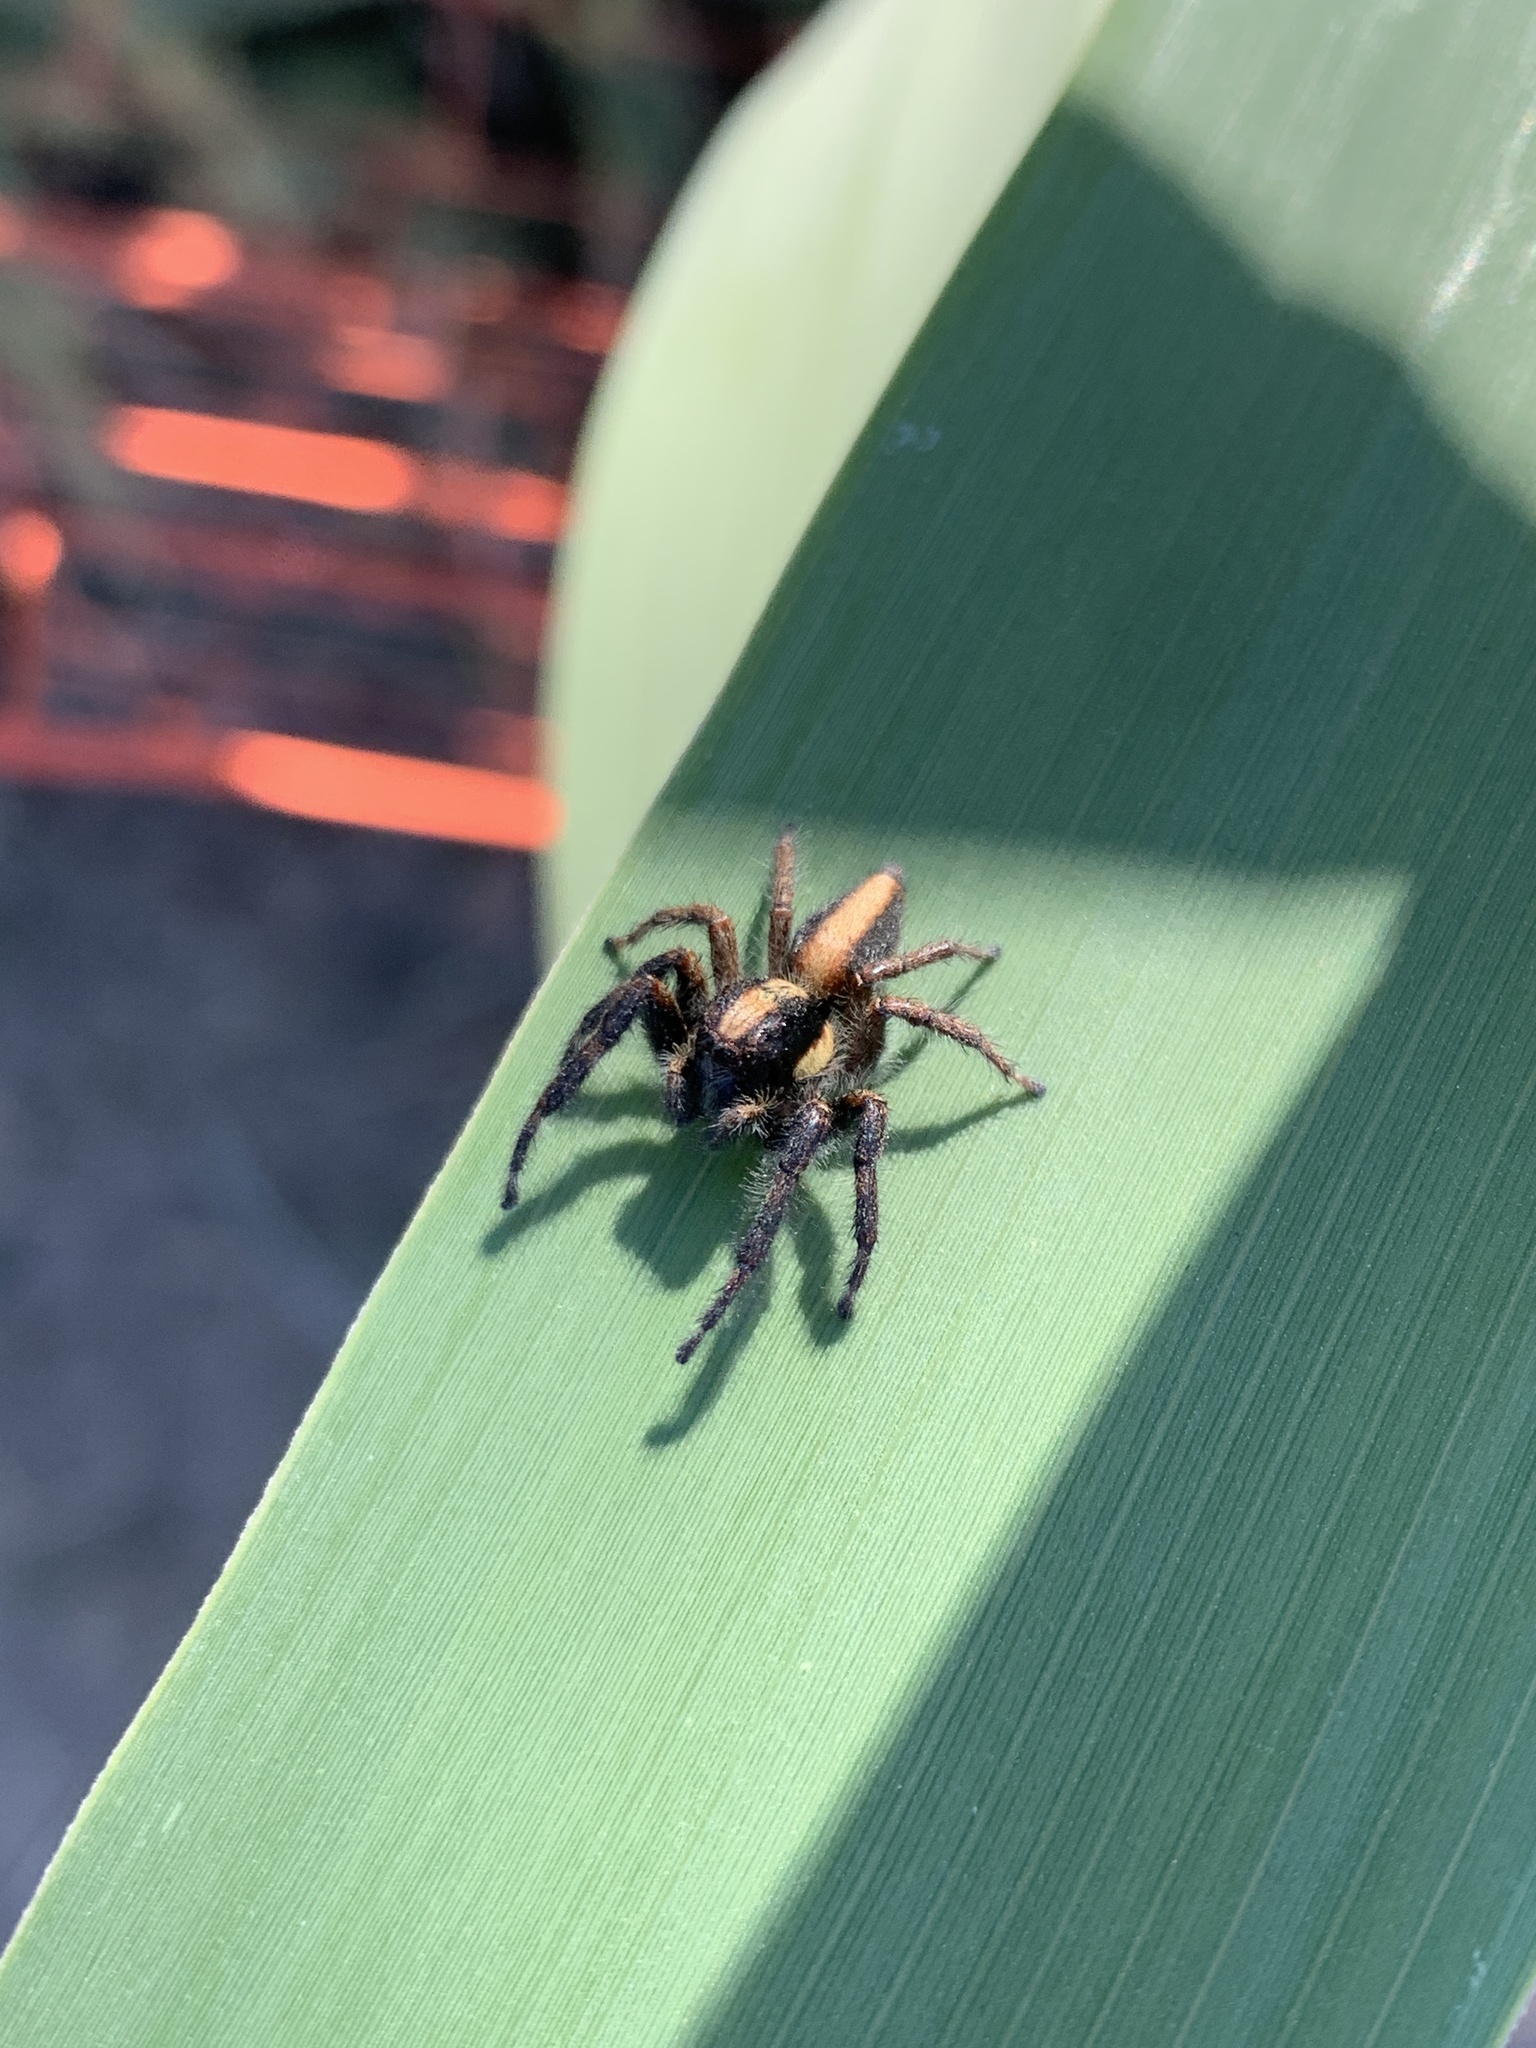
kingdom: Animalia
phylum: Arthropoda
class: Arachnida
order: Araneae
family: Salticidae
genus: Megafreya
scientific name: Megafreya sutrix
